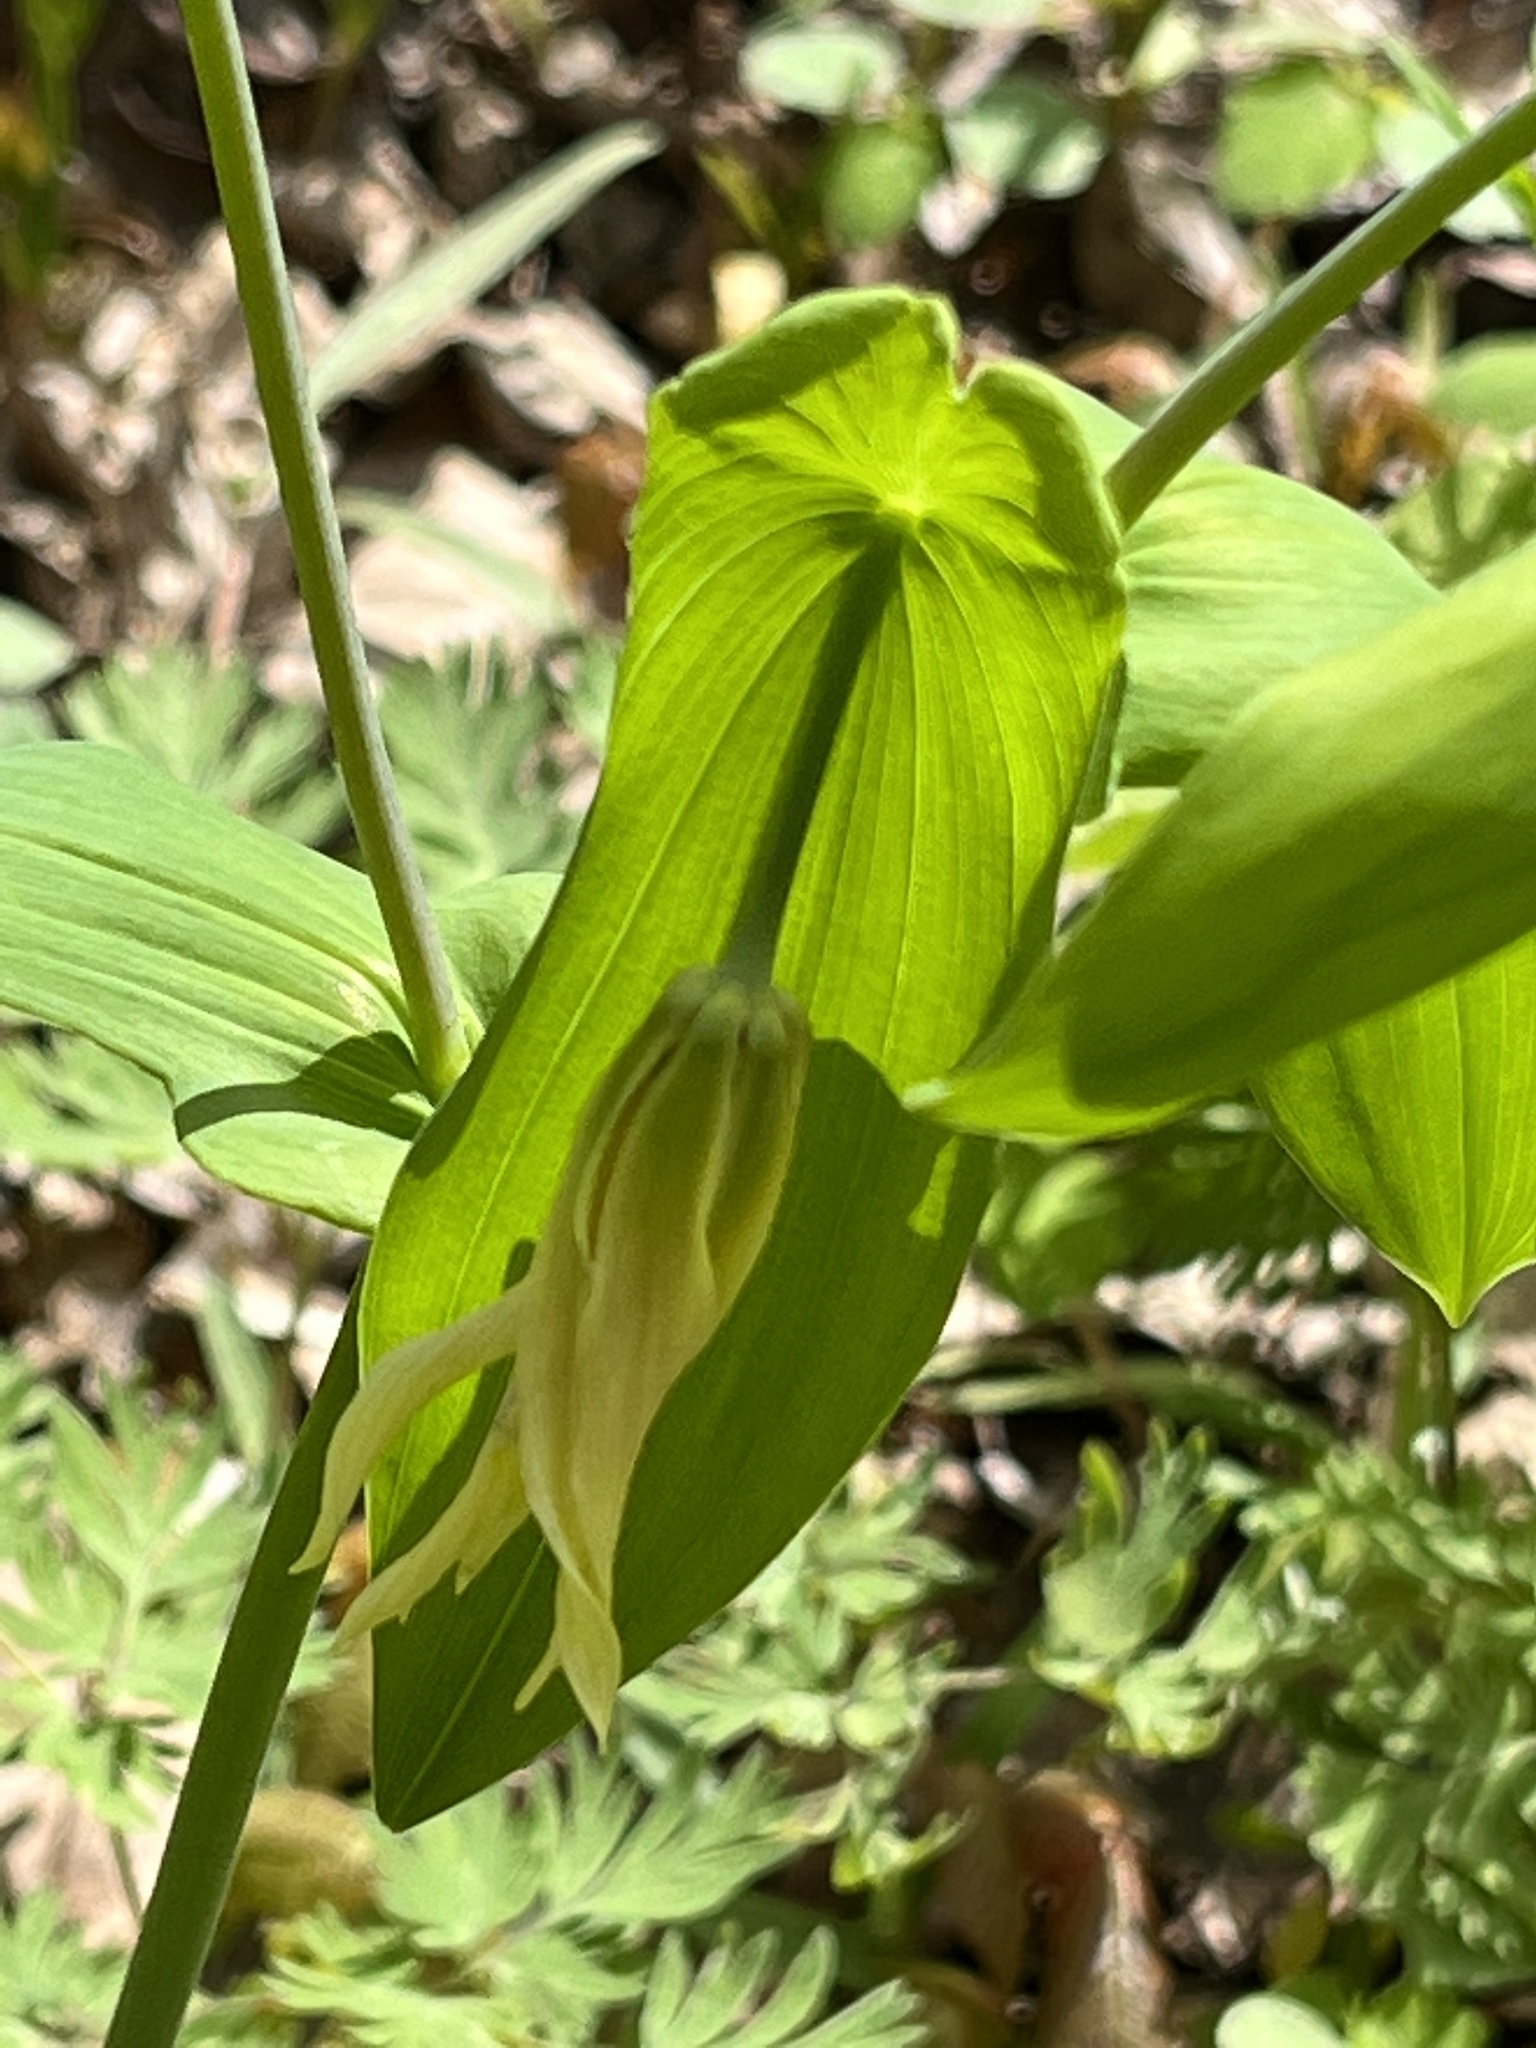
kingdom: Plantae
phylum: Tracheophyta
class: Liliopsida
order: Liliales
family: Colchicaceae
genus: Uvularia
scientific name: Uvularia grandiflora
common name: Bellwort
